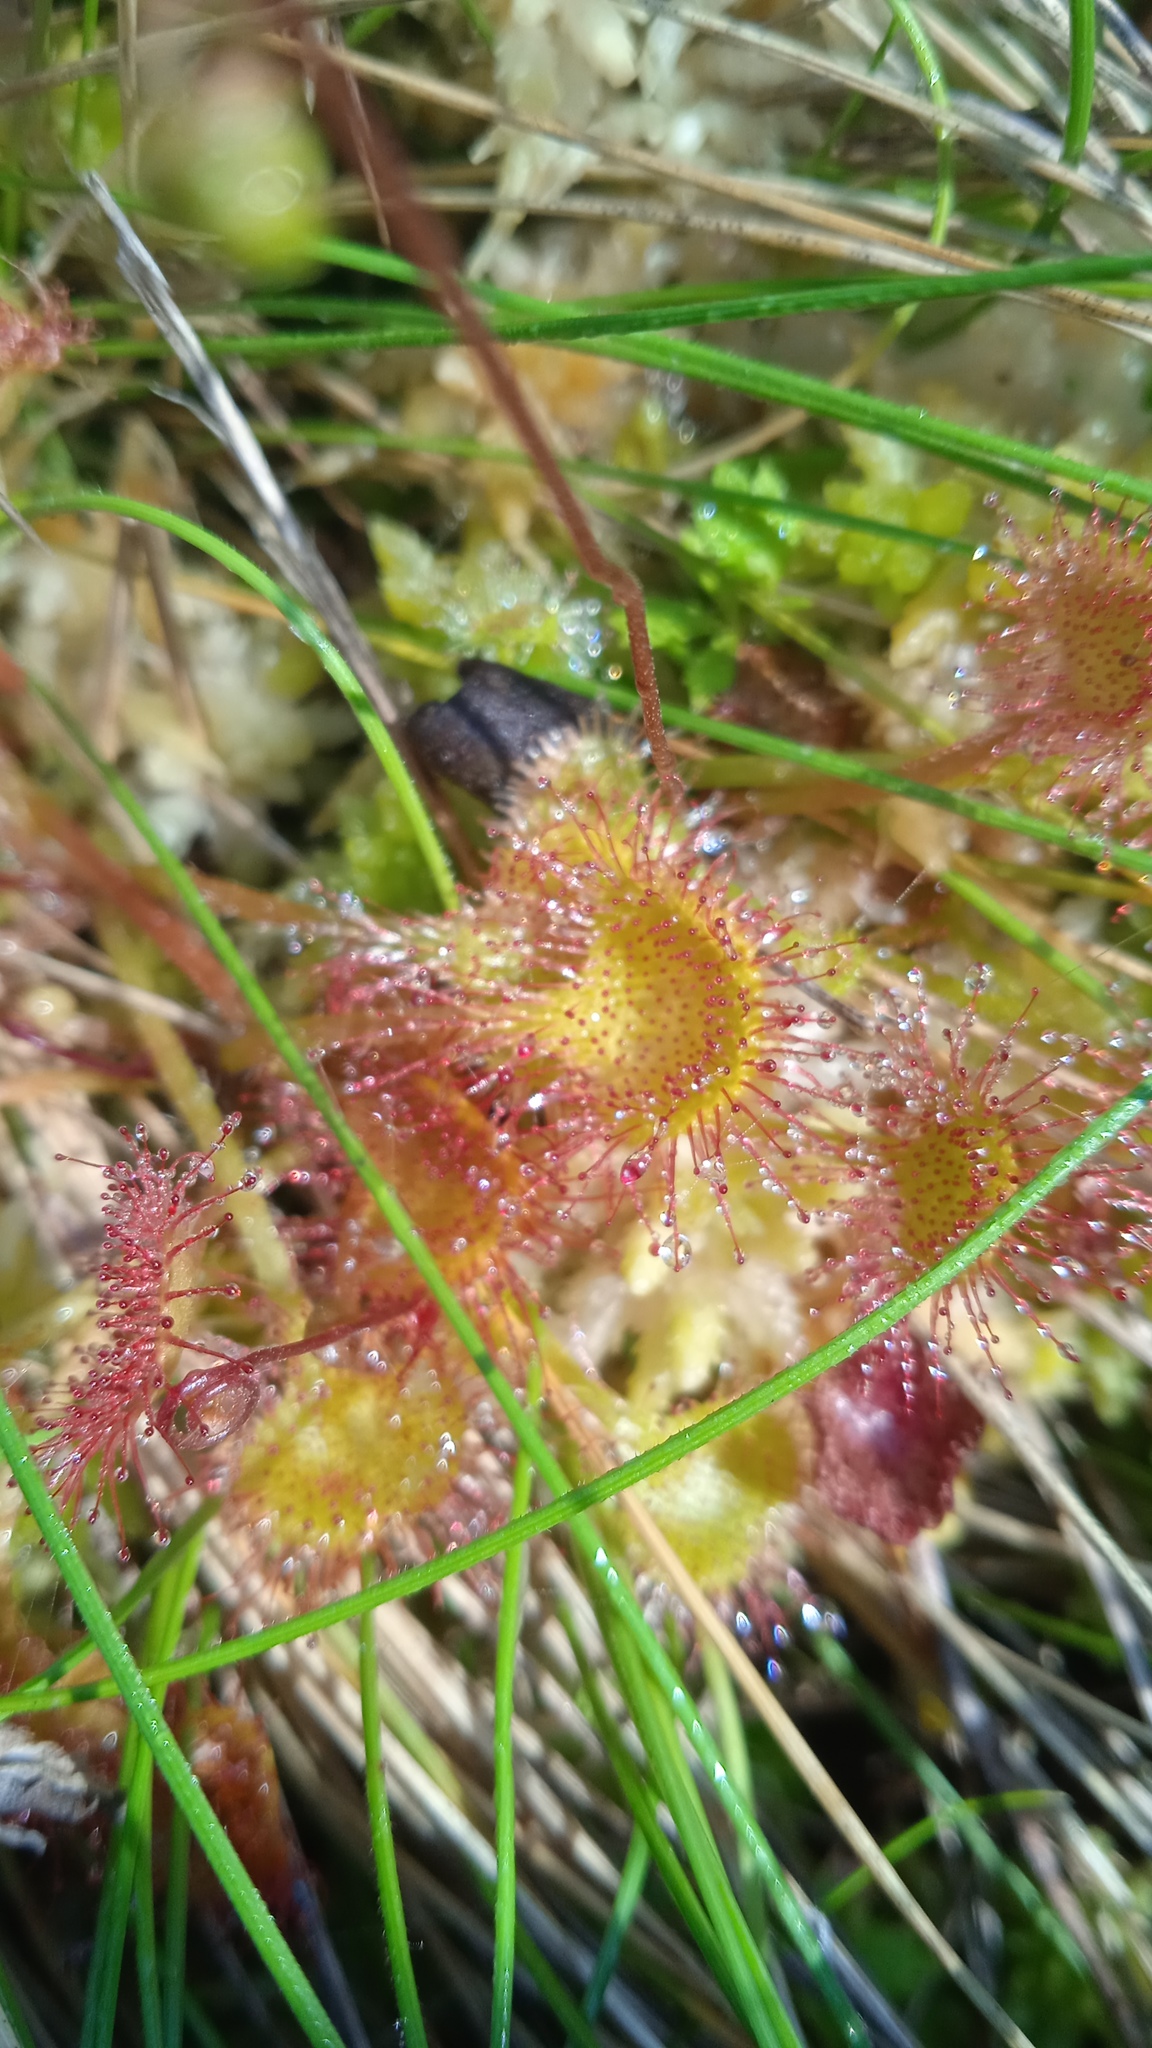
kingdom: Plantae
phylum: Tracheophyta
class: Magnoliopsida
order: Caryophyllales
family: Droseraceae
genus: Drosera
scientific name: Drosera rotundifolia
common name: Round-leaved sundew
